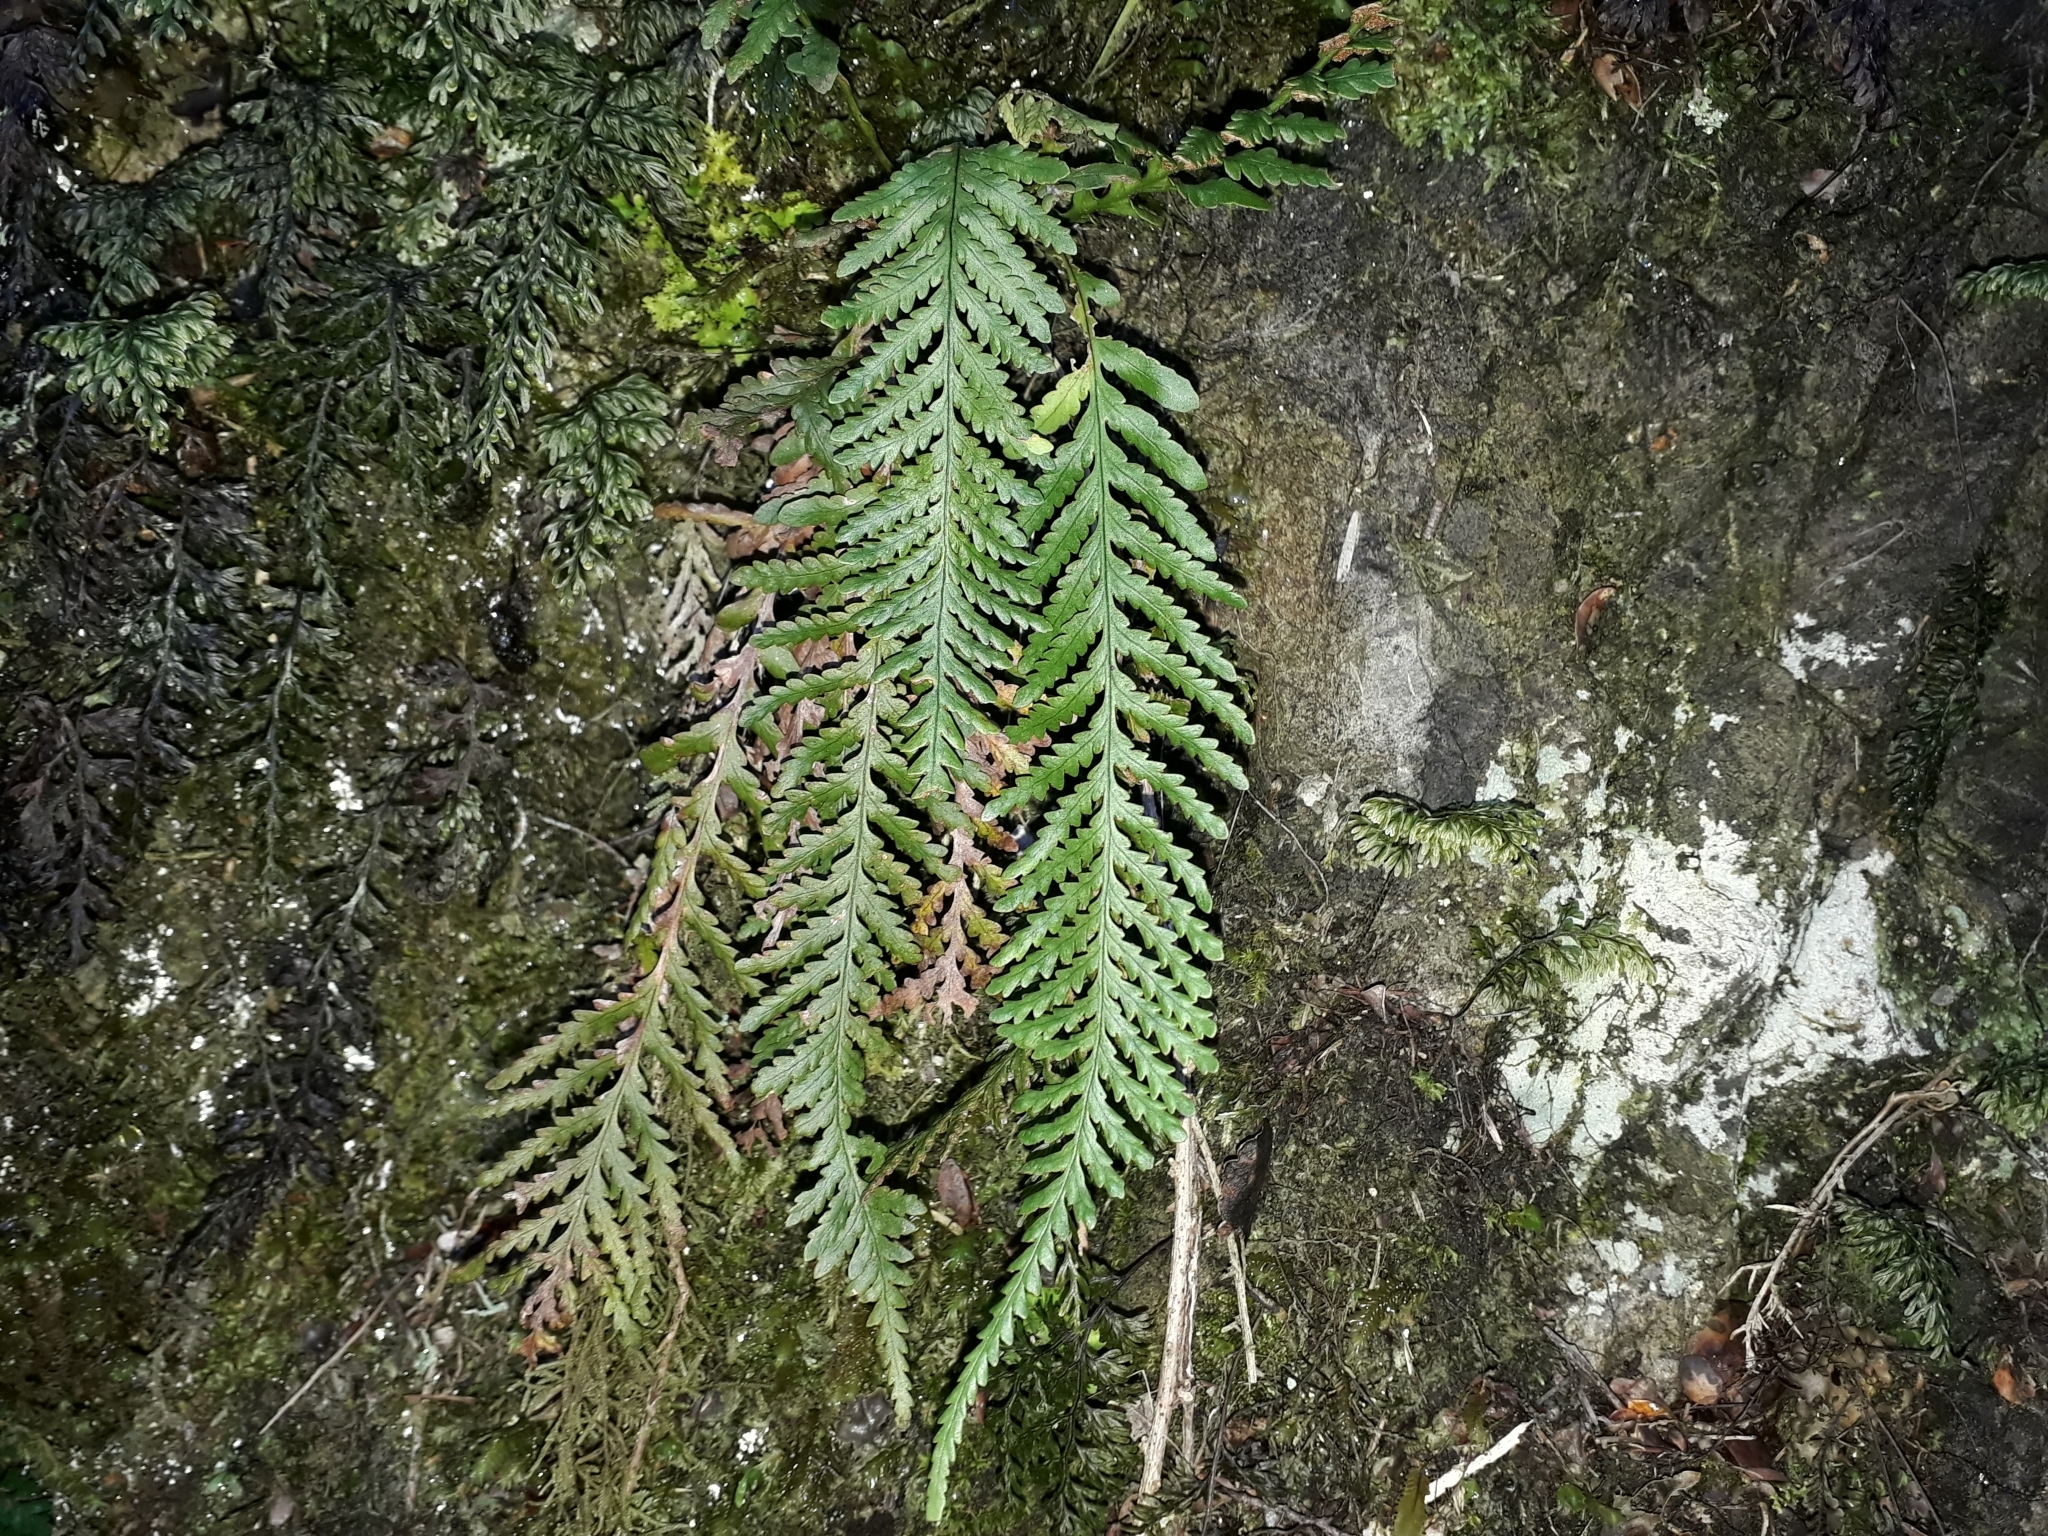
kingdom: Plantae
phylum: Tracheophyta
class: Polypodiopsida
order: Polypodiales
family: Polypodiaceae
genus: Notogrammitis
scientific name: Notogrammitis heterophylla
